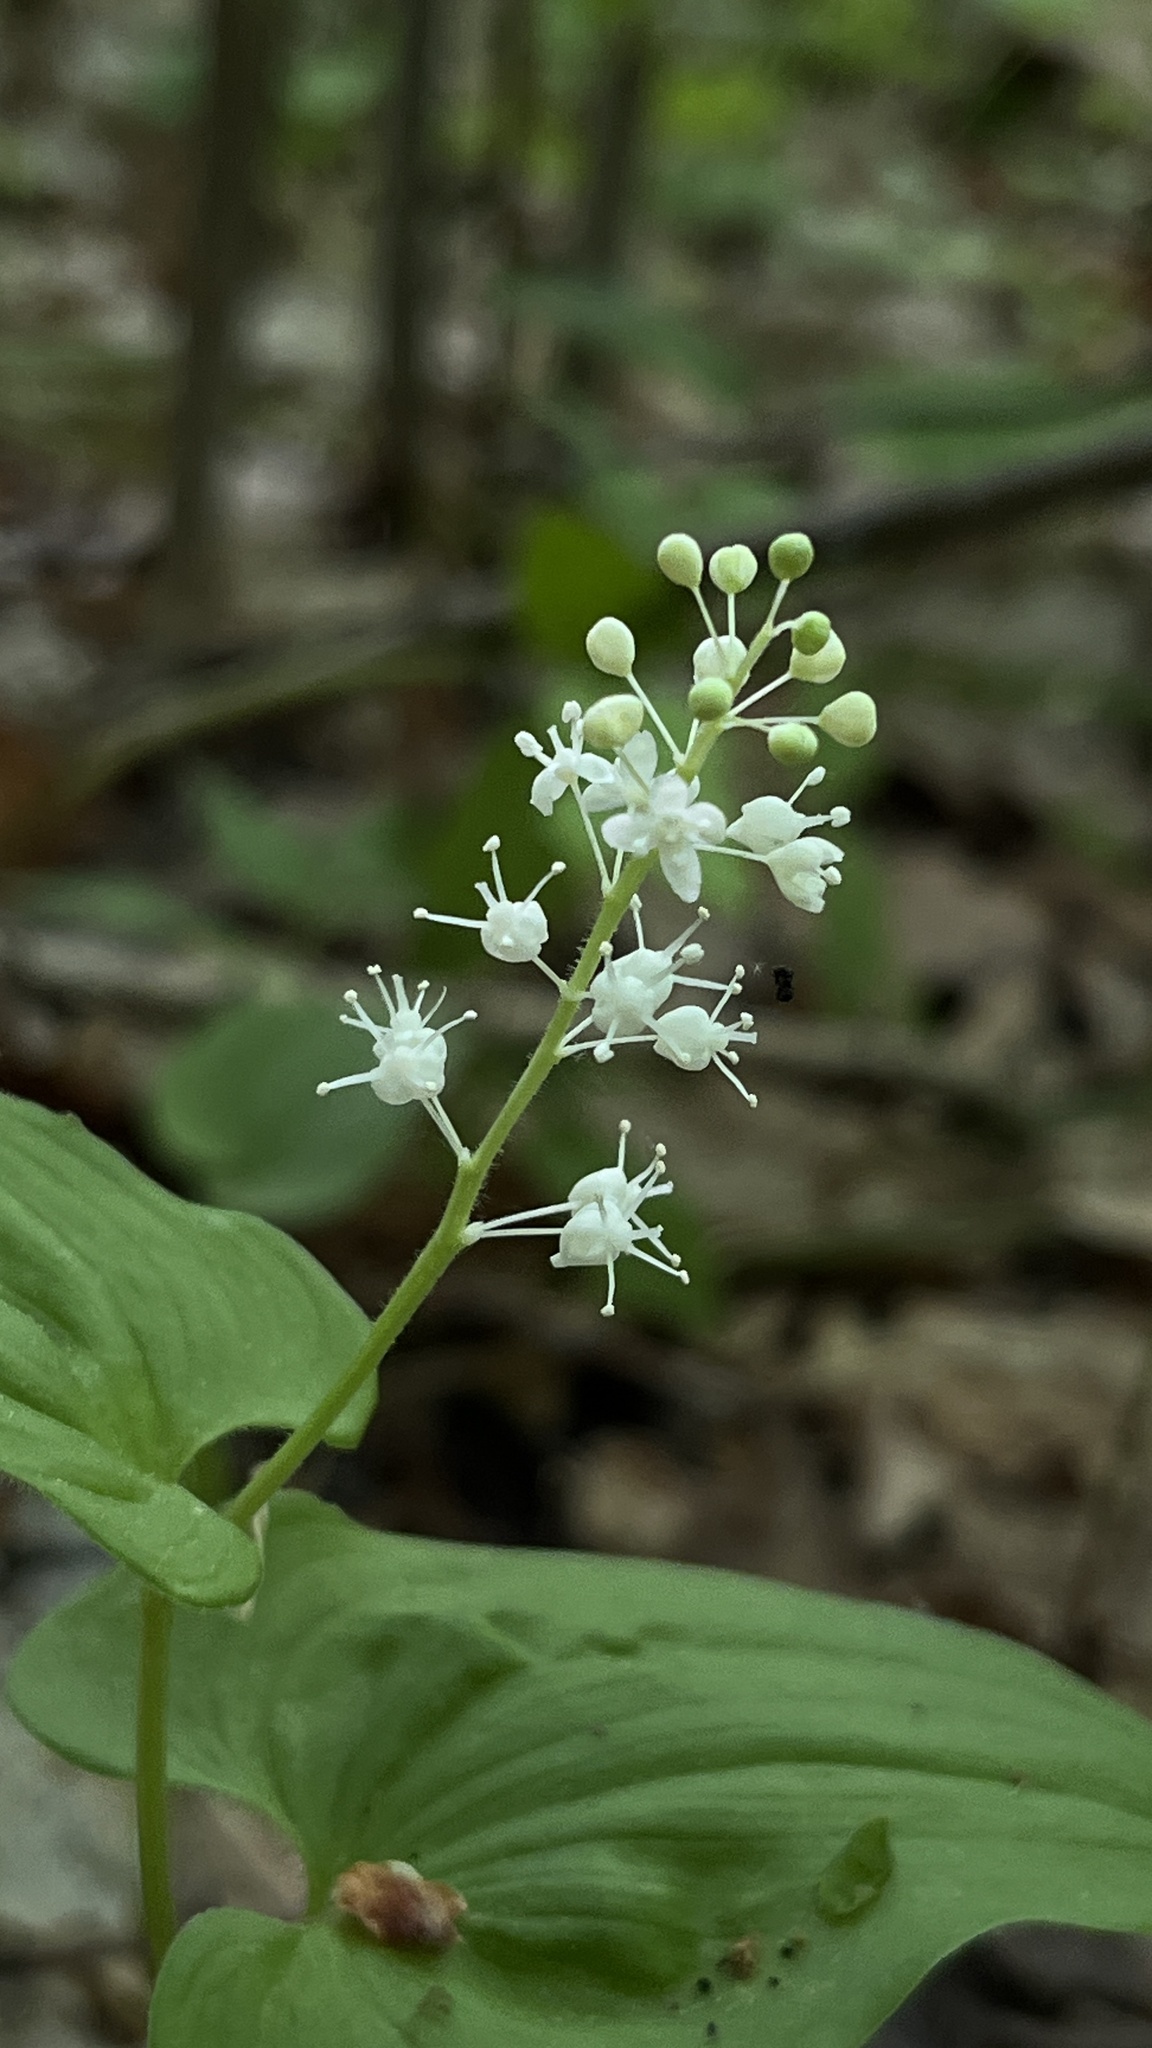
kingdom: Plantae
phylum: Tracheophyta
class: Liliopsida
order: Asparagales
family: Asparagaceae
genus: Maianthemum
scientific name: Maianthemum bifolium
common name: May lily
